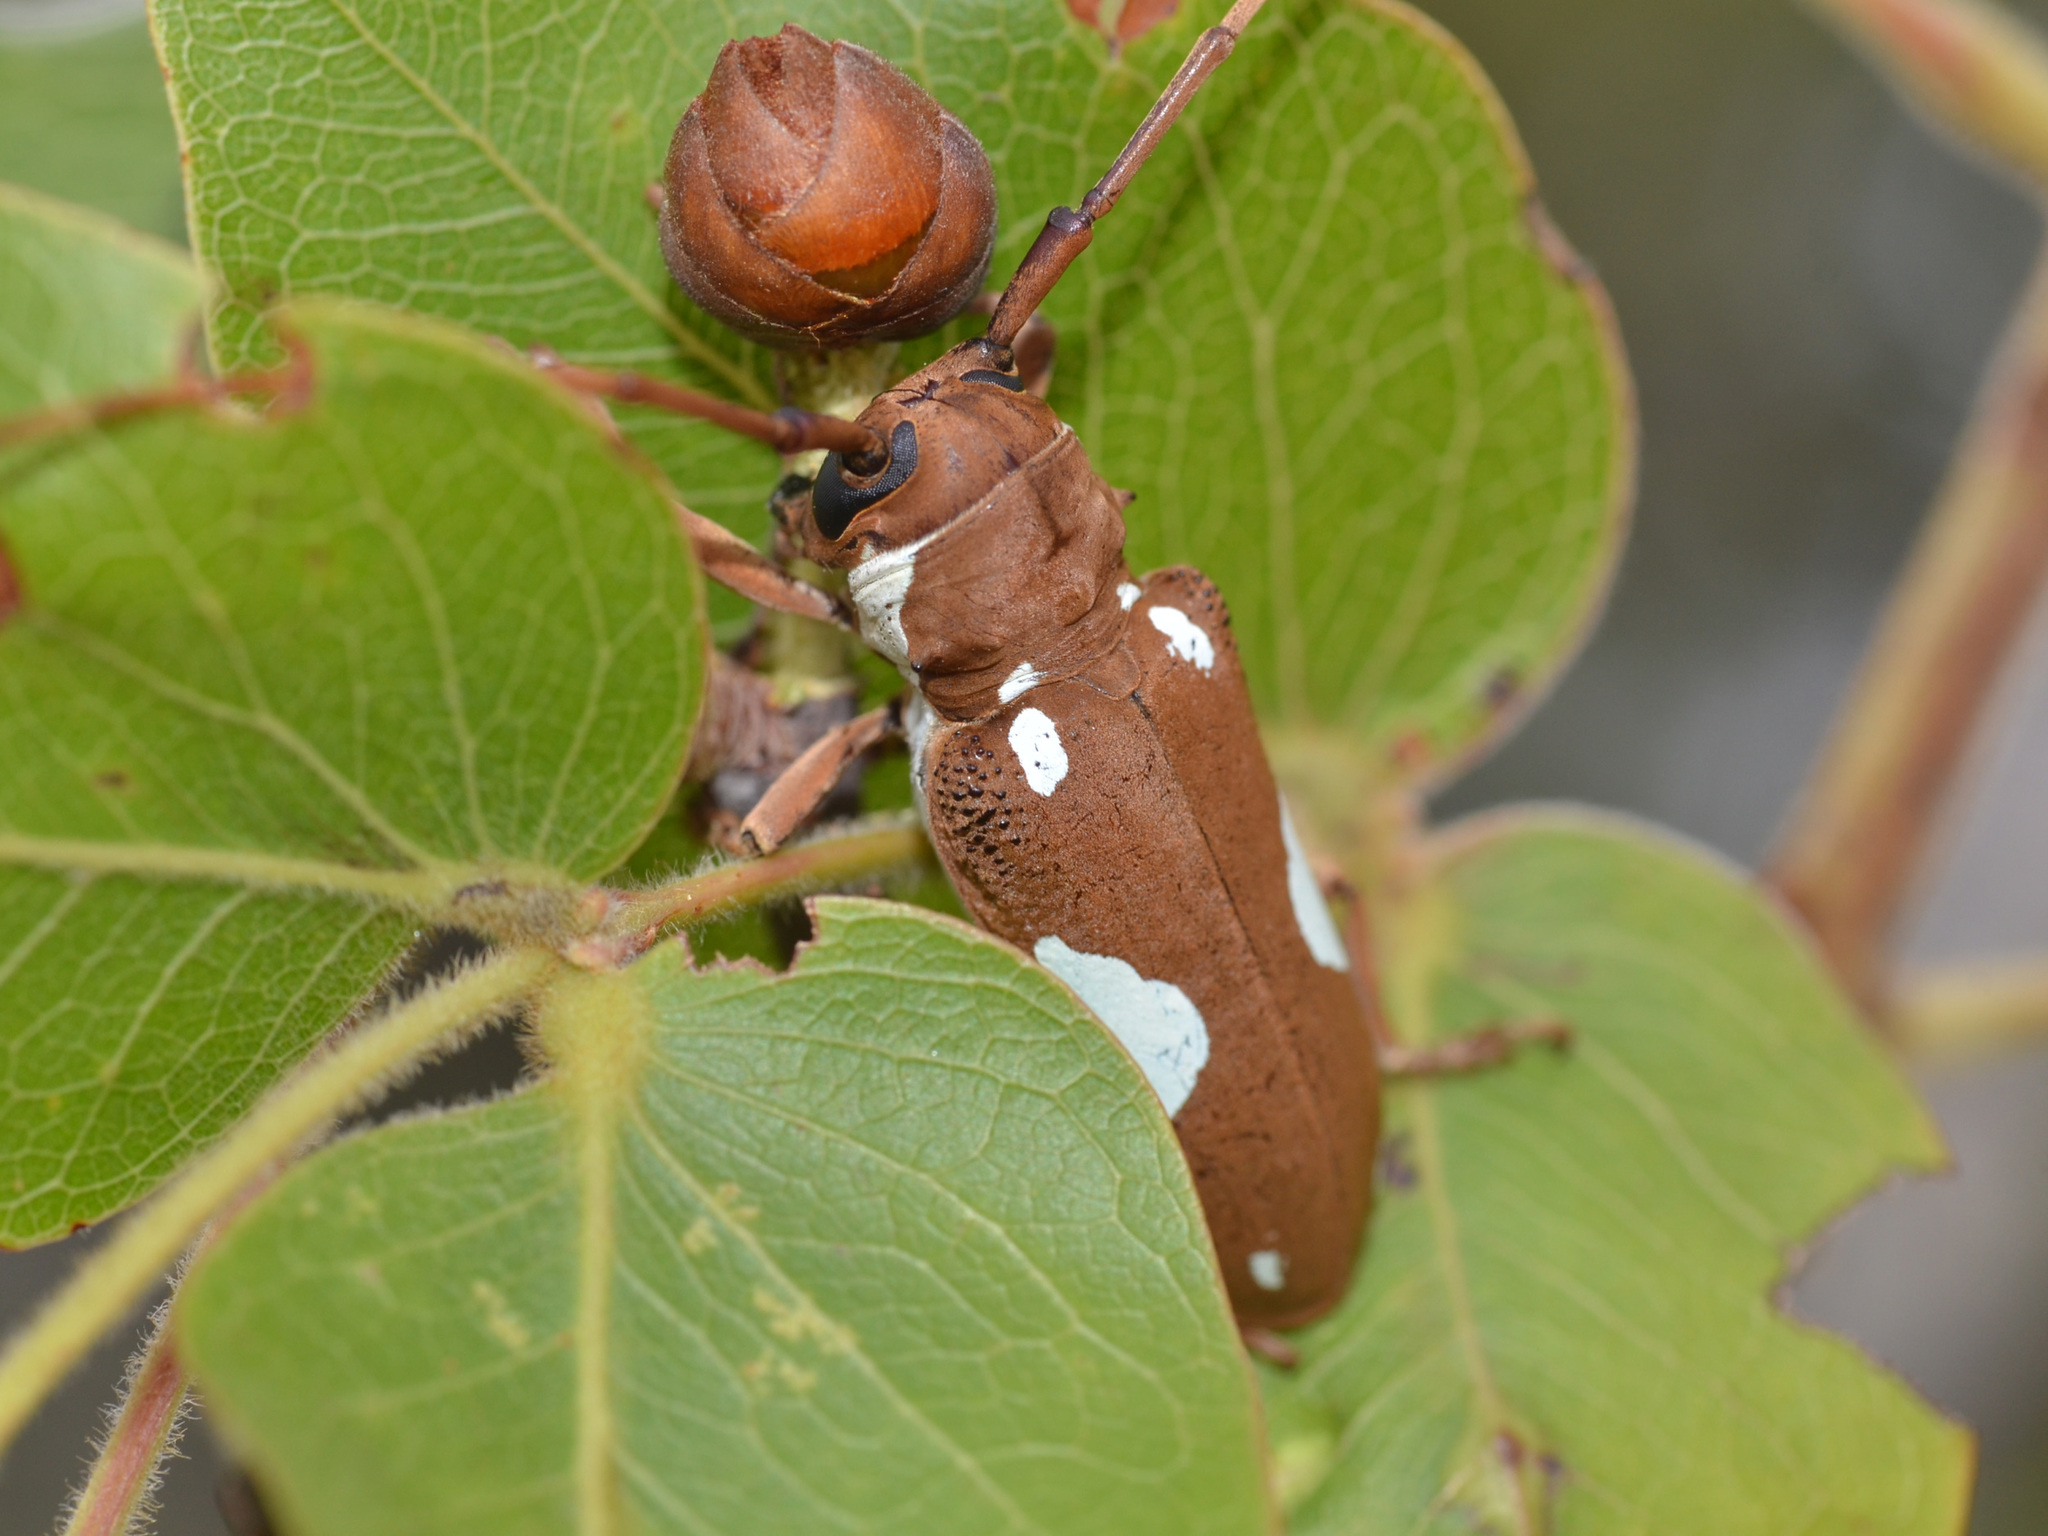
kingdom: Animalia
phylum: Arthropoda
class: Insecta
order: Coleoptera
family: Cerambycidae
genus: Prosopocera
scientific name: Prosopocera lactator
